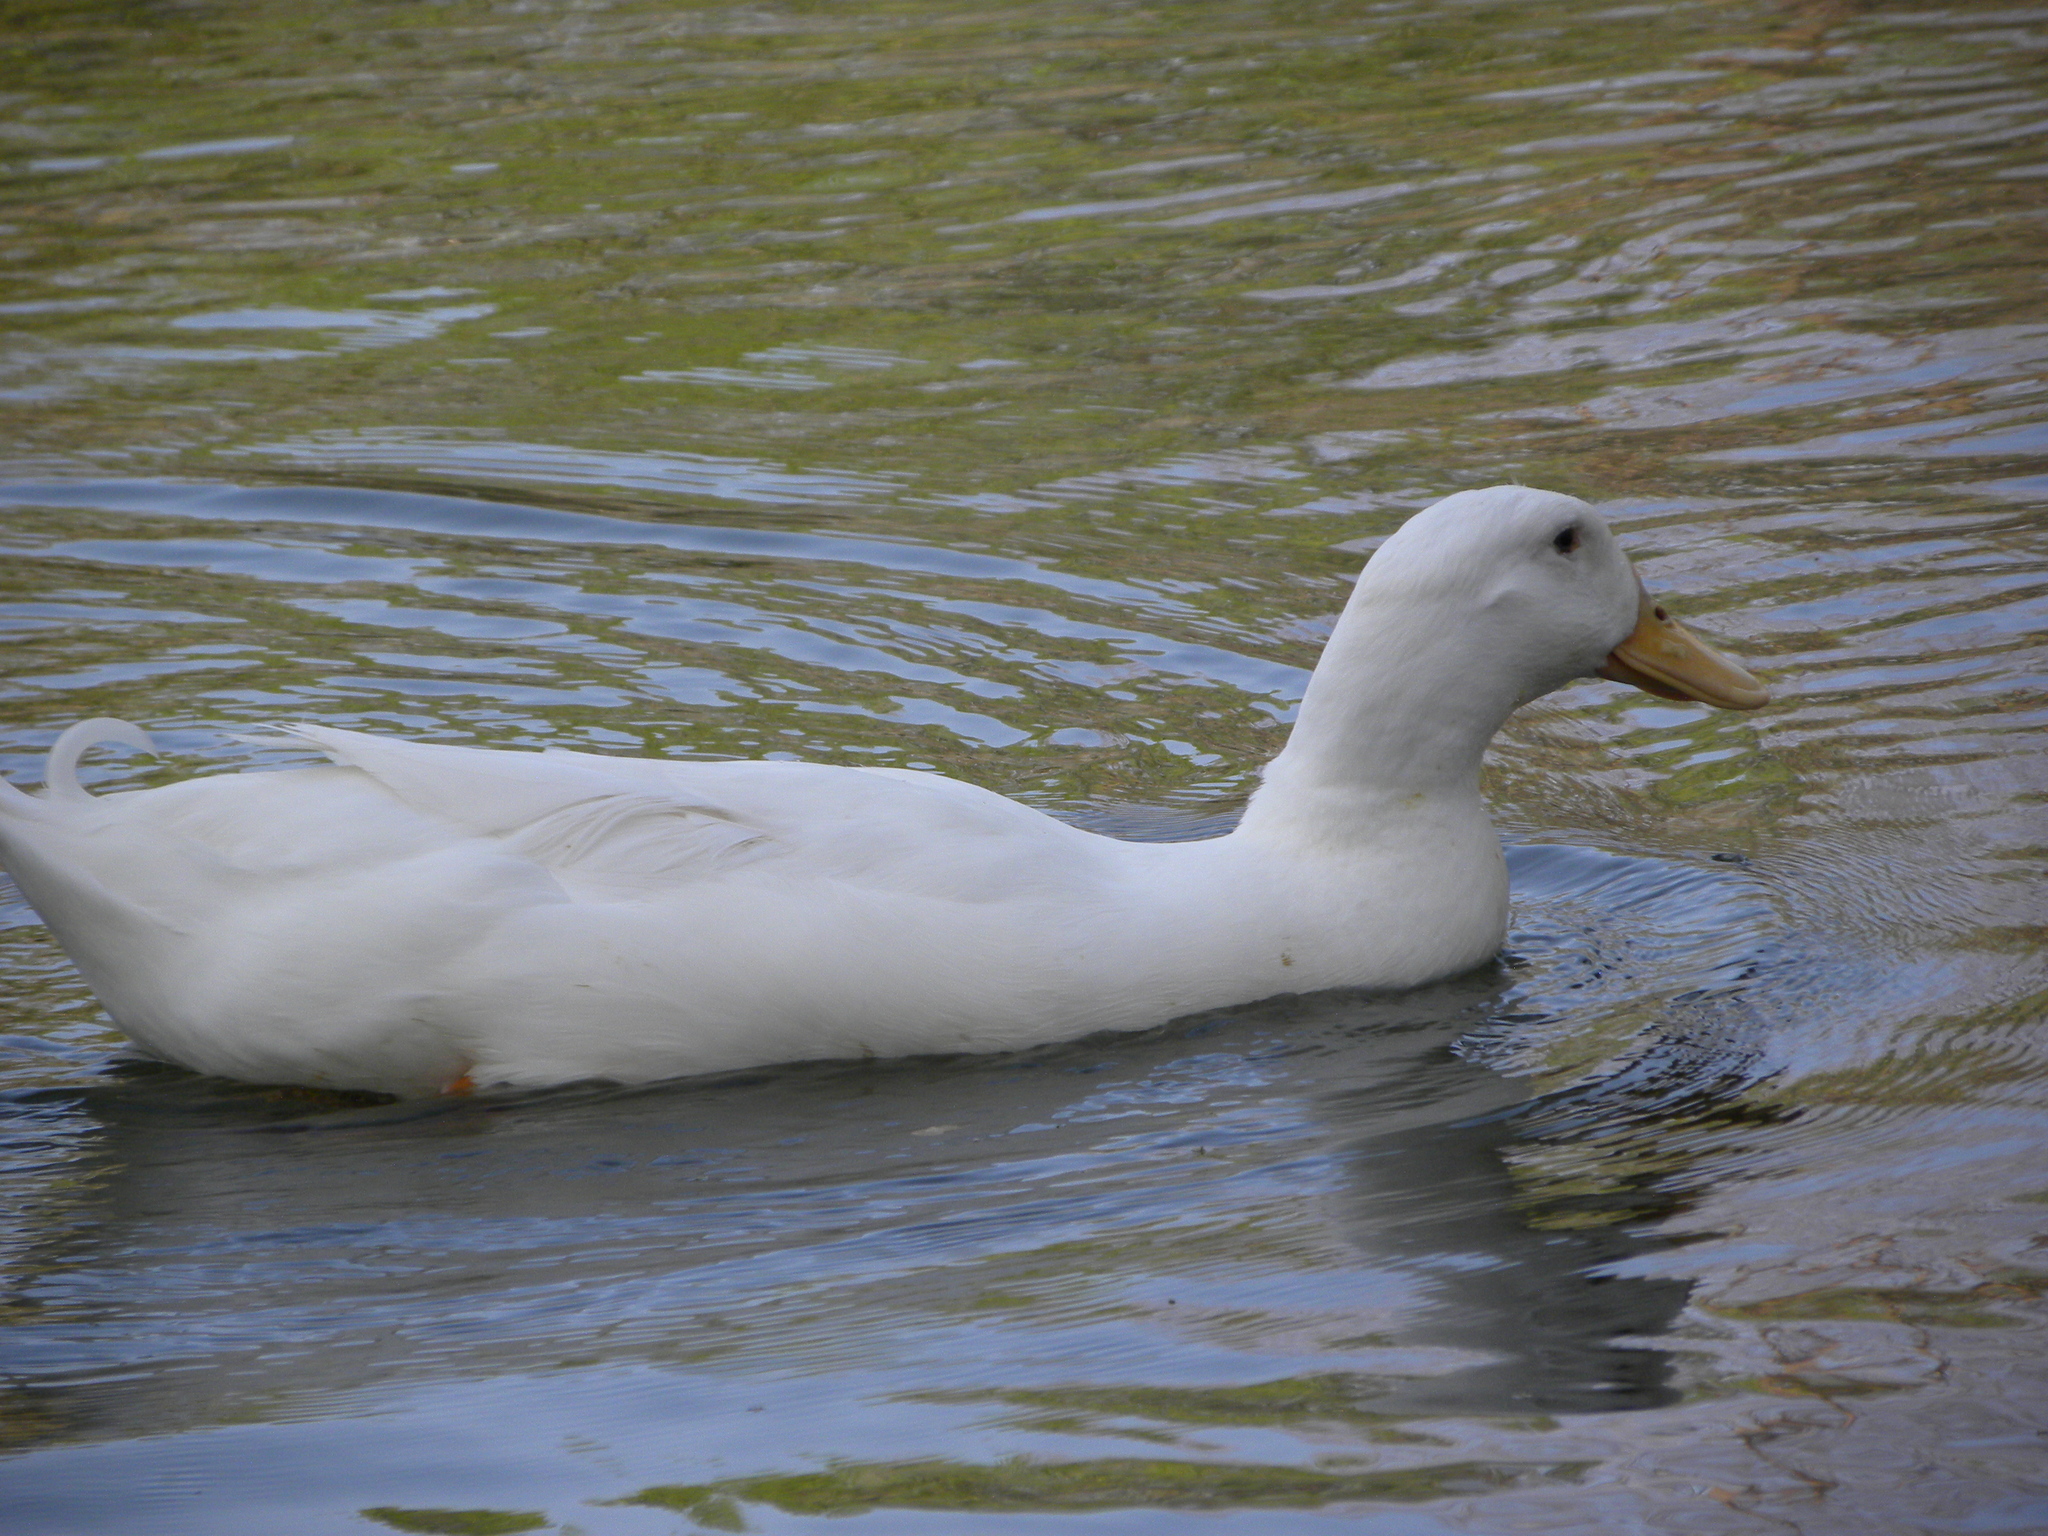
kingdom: Animalia
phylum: Chordata
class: Aves
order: Anseriformes
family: Anatidae
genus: Anas
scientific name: Anas platyrhynchos
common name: Mallard
